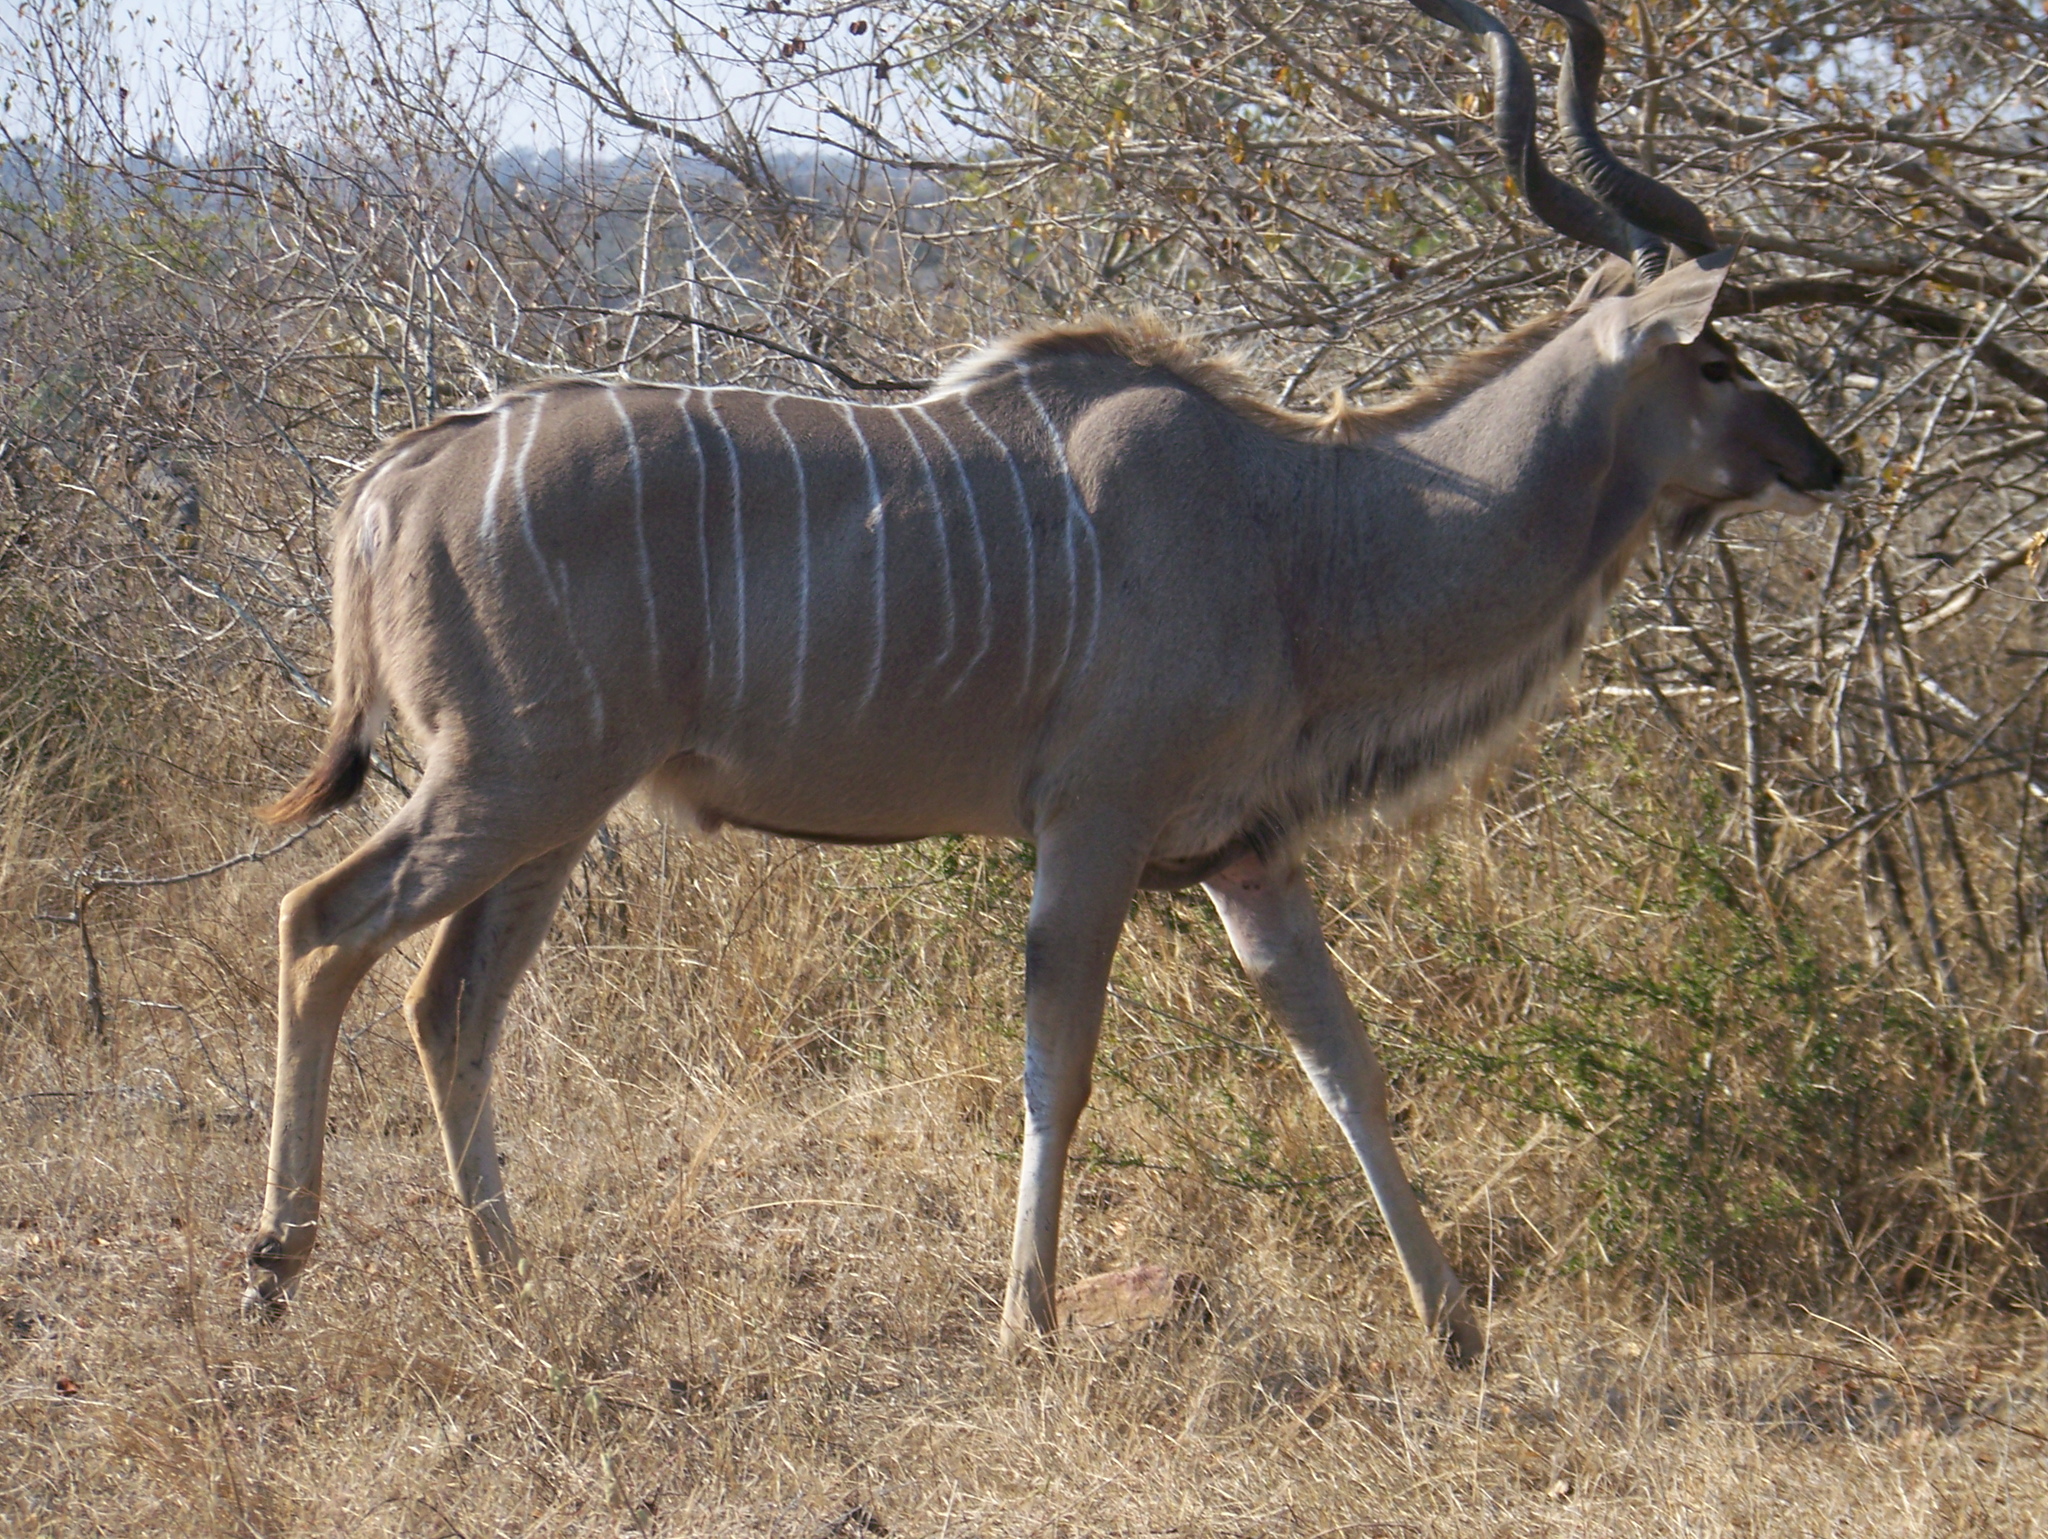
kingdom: Animalia
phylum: Chordata
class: Mammalia
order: Artiodactyla
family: Bovidae
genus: Tragelaphus
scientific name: Tragelaphus strepsiceros
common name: Greater kudu
